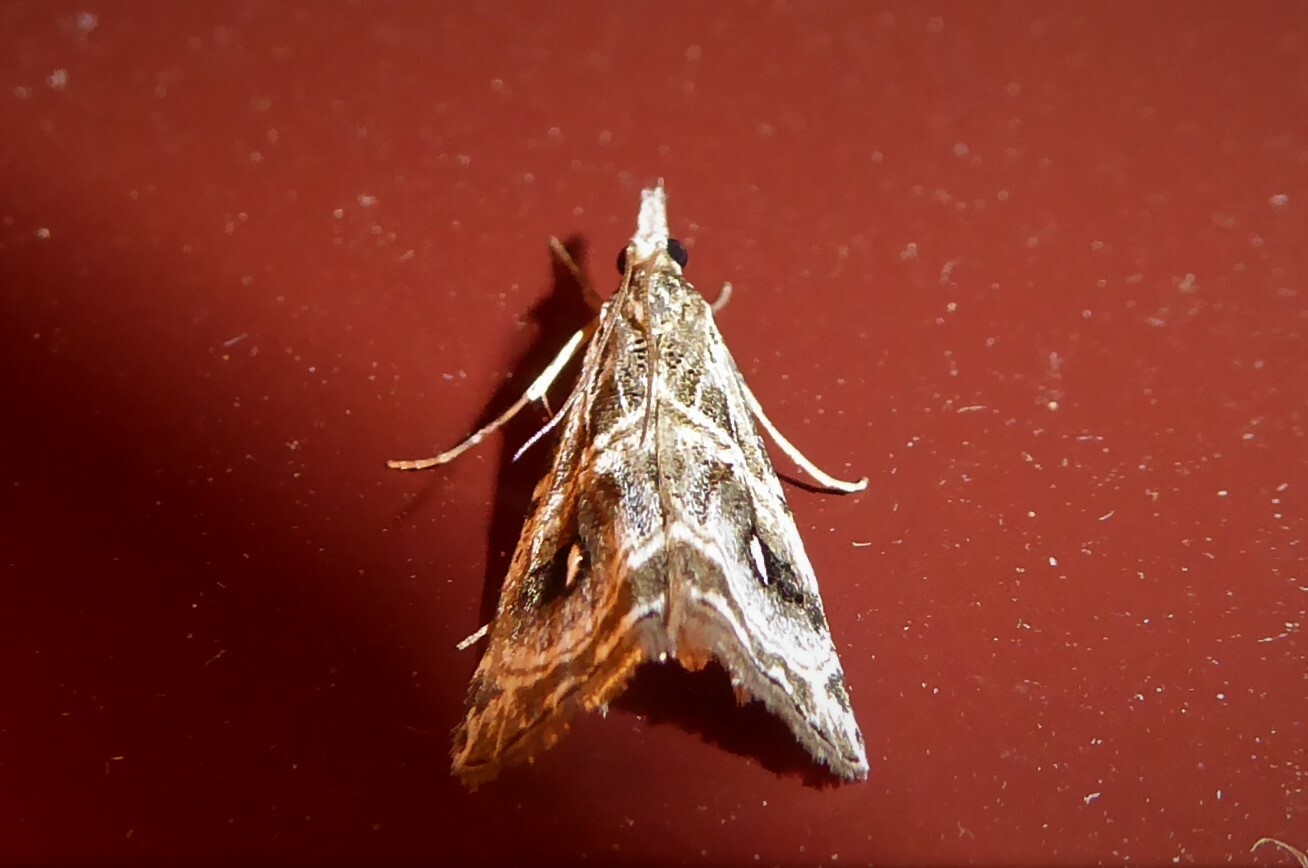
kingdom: Animalia
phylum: Arthropoda
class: Insecta
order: Lepidoptera
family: Crambidae
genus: Gadira
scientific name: Gadira acerella
